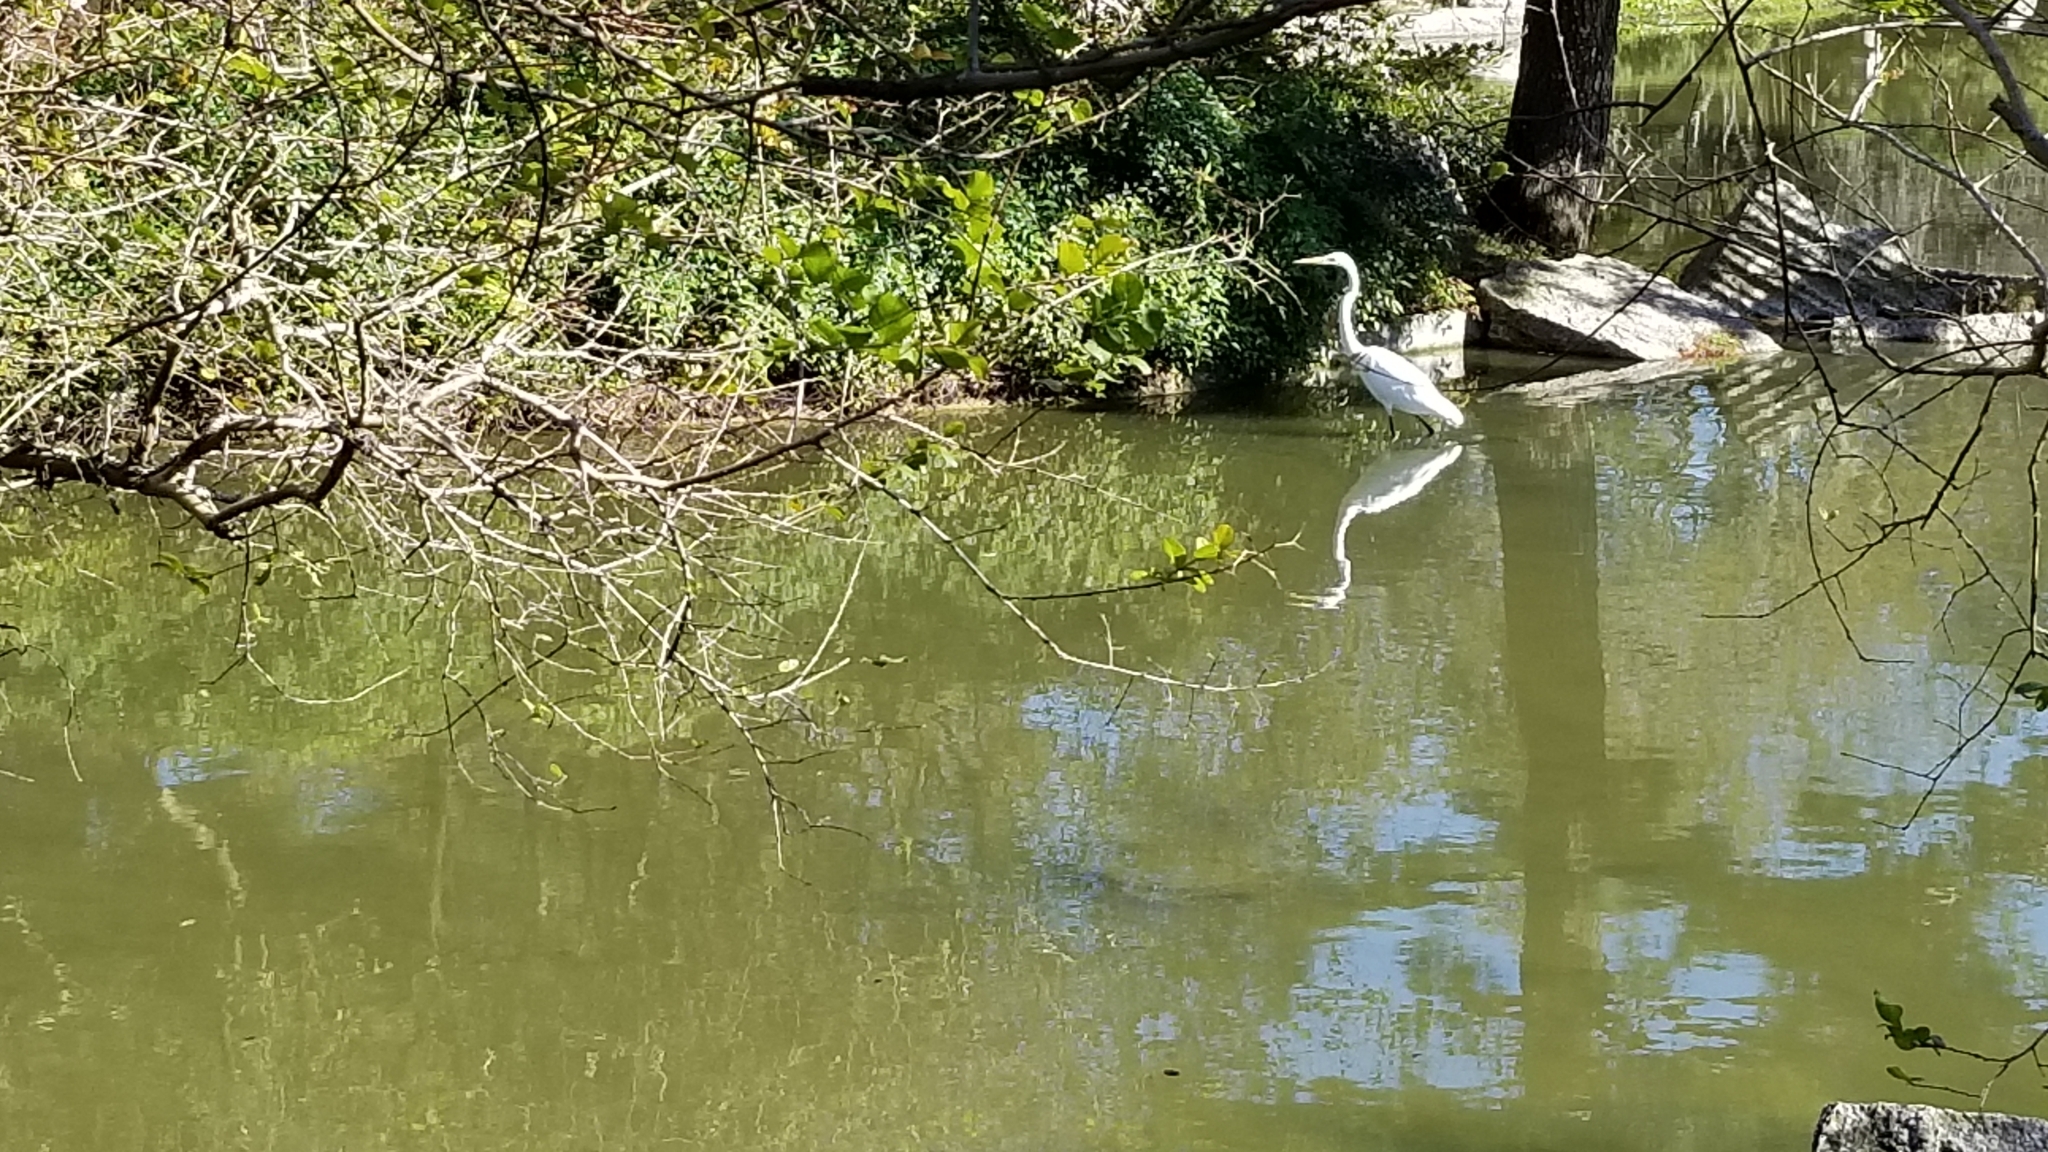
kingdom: Animalia
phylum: Chordata
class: Aves
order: Pelecaniformes
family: Ardeidae
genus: Ardea
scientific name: Ardea alba
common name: Great egret
